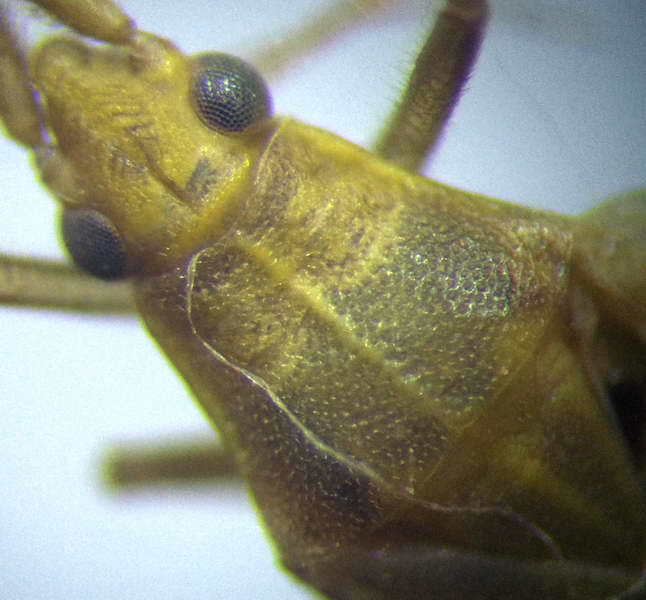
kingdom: Animalia
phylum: Arthropoda
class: Insecta
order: Hemiptera
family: Miridae
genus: Stenodema
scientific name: Stenodema calcarata
